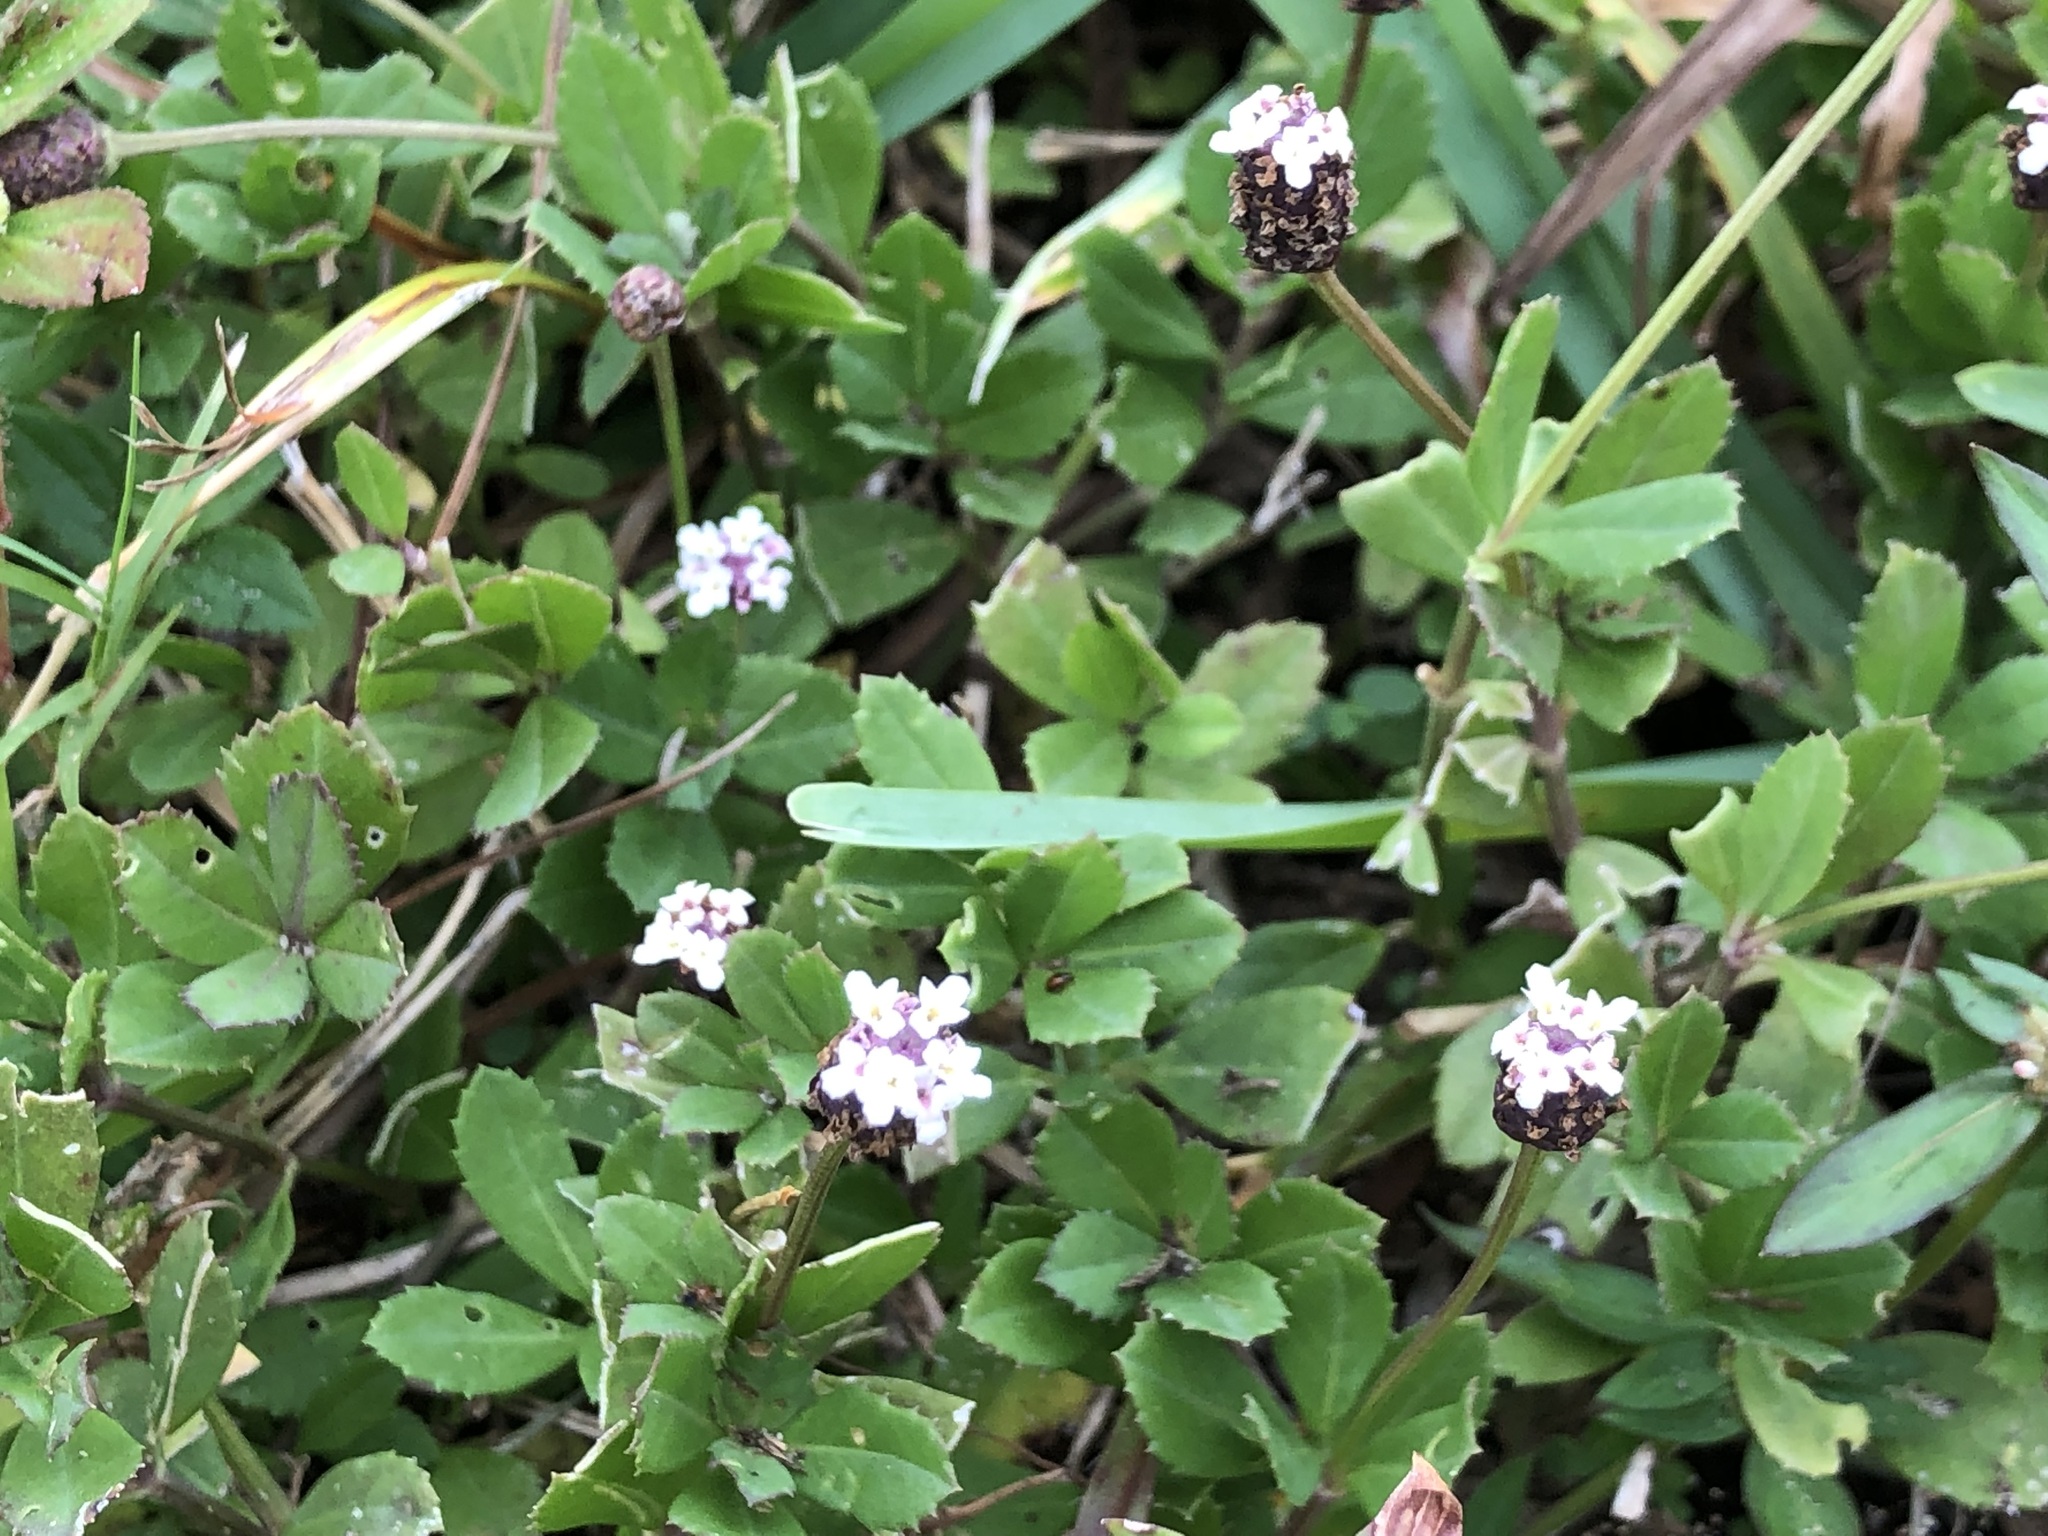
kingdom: Plantae
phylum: Tracheophyta
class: Magnoliopsida
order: Lamiales
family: Verbenaceae
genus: Phyla
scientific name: Phyla nodiflora
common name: Frogfruit
